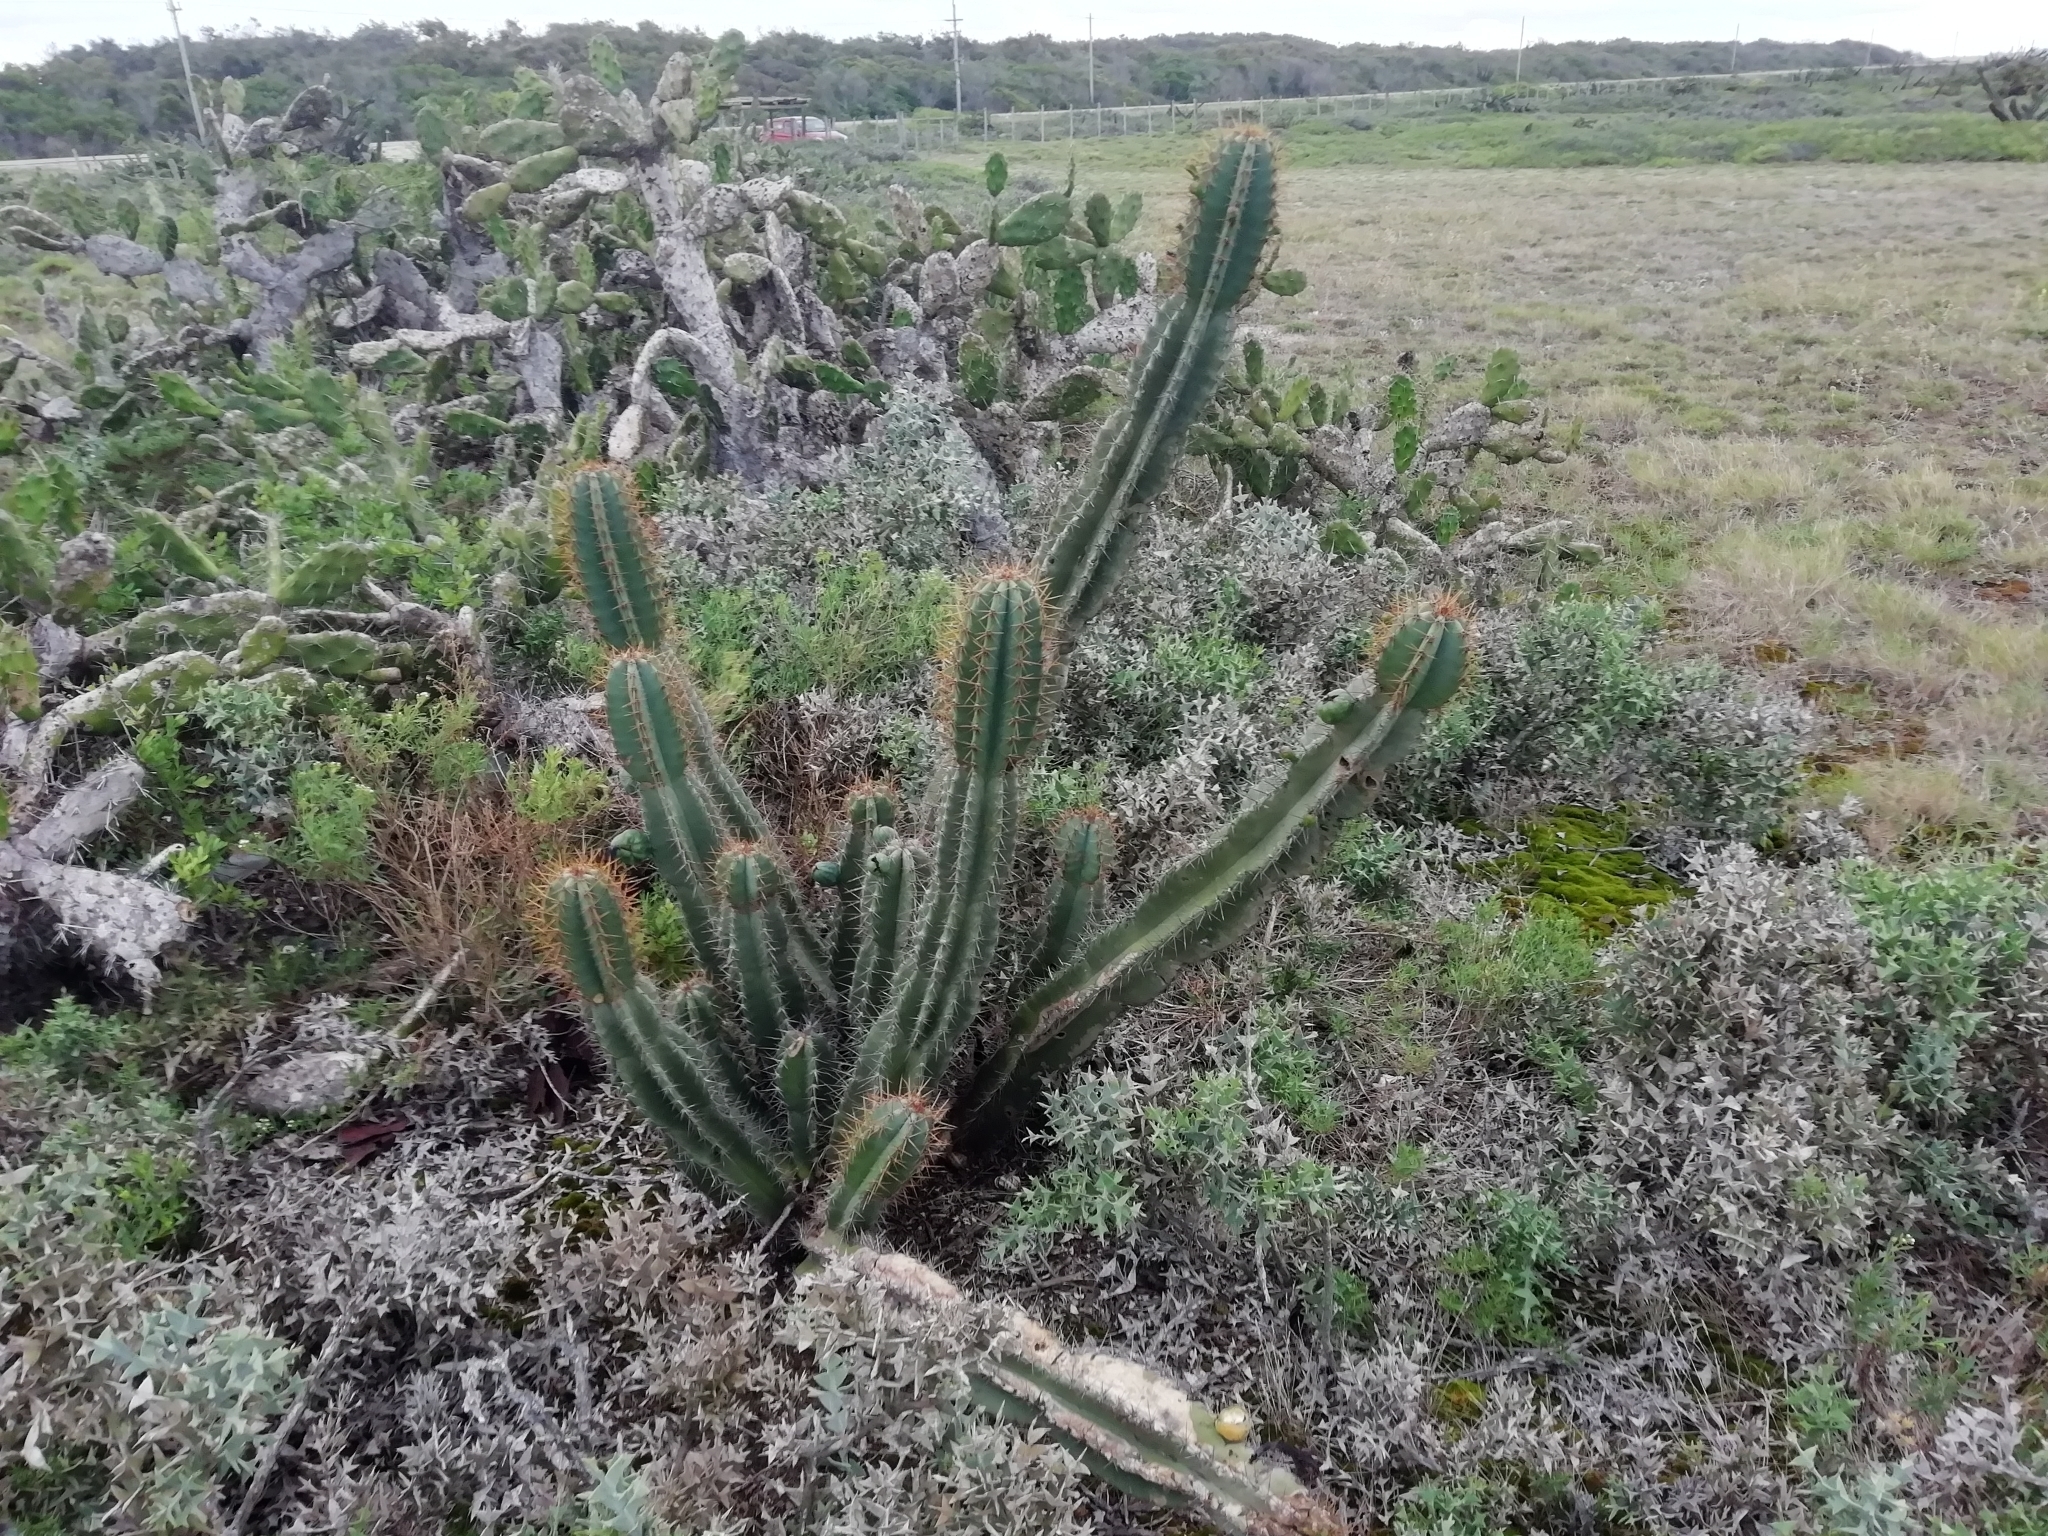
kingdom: Plantae
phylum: Tracheophyta
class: Magnoliopsida
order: Caryophyllales
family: Cactaceae
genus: Cereus
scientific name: Cereus hildmannianus
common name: Hedge cactus
